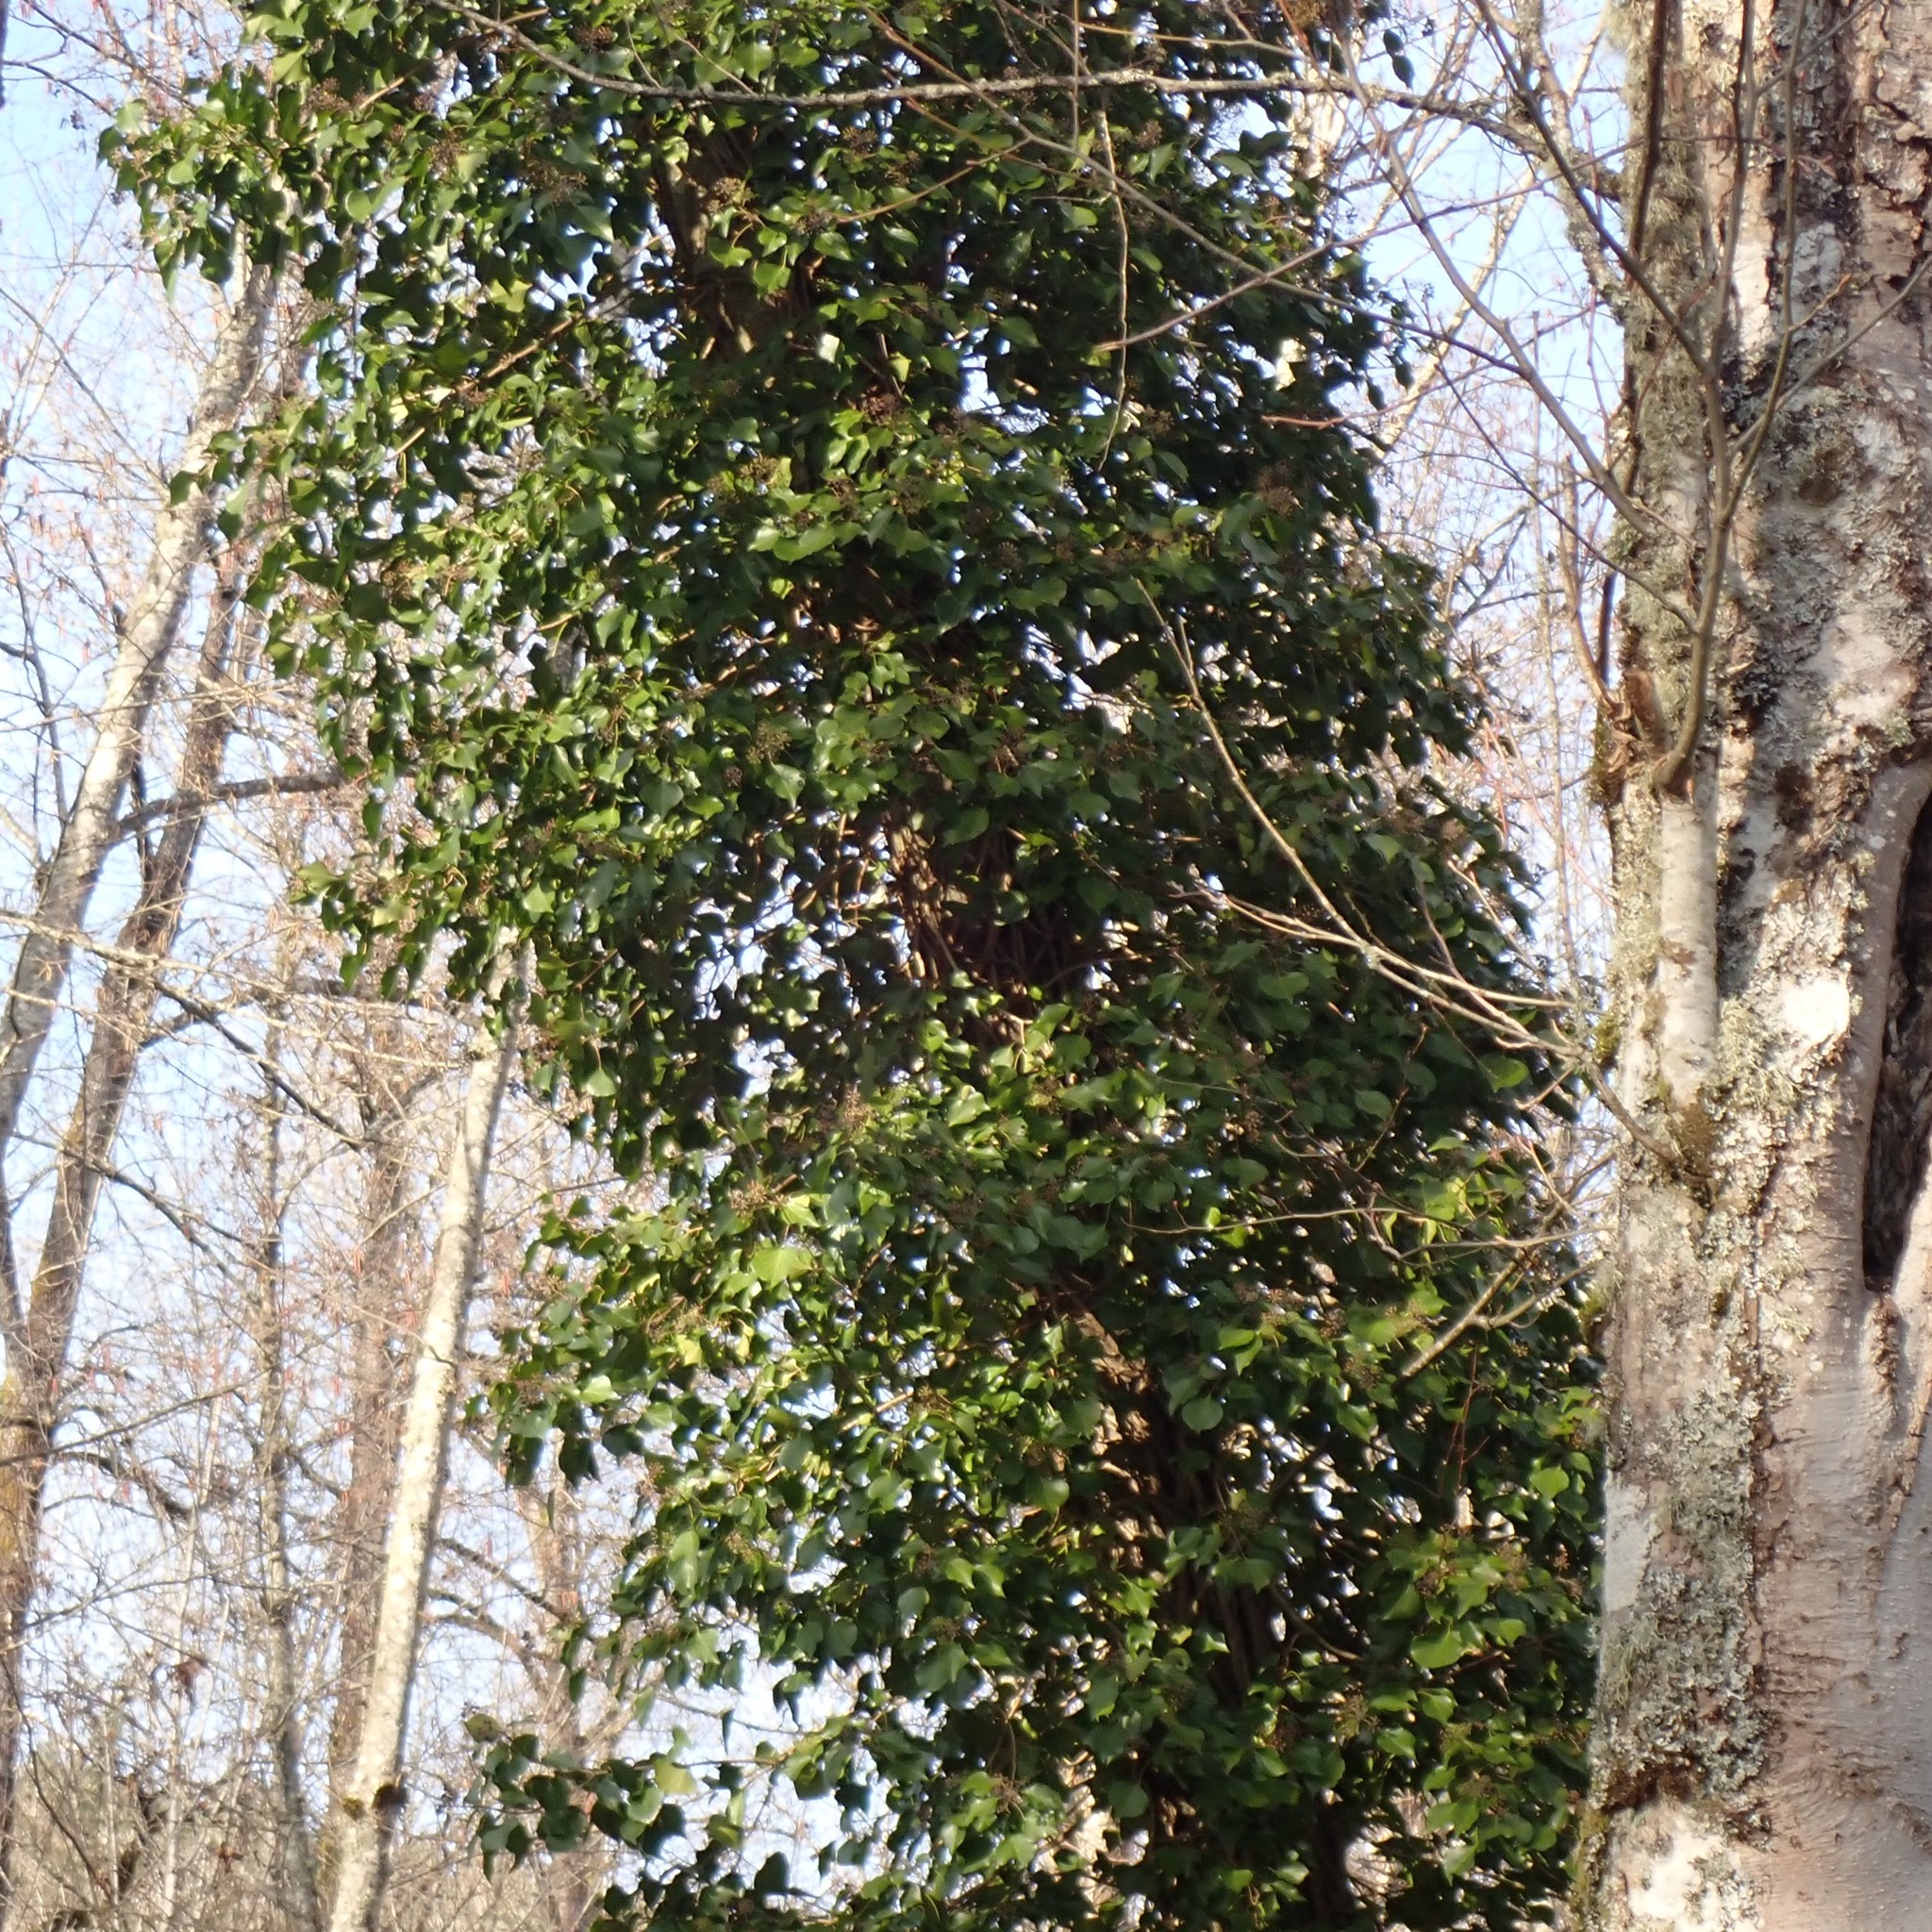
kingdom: Plantae
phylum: Tracheophyta
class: Magnoliopsida
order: Apiales
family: Araliaceae
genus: Hedera
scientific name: Hedera helix
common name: Ivy
